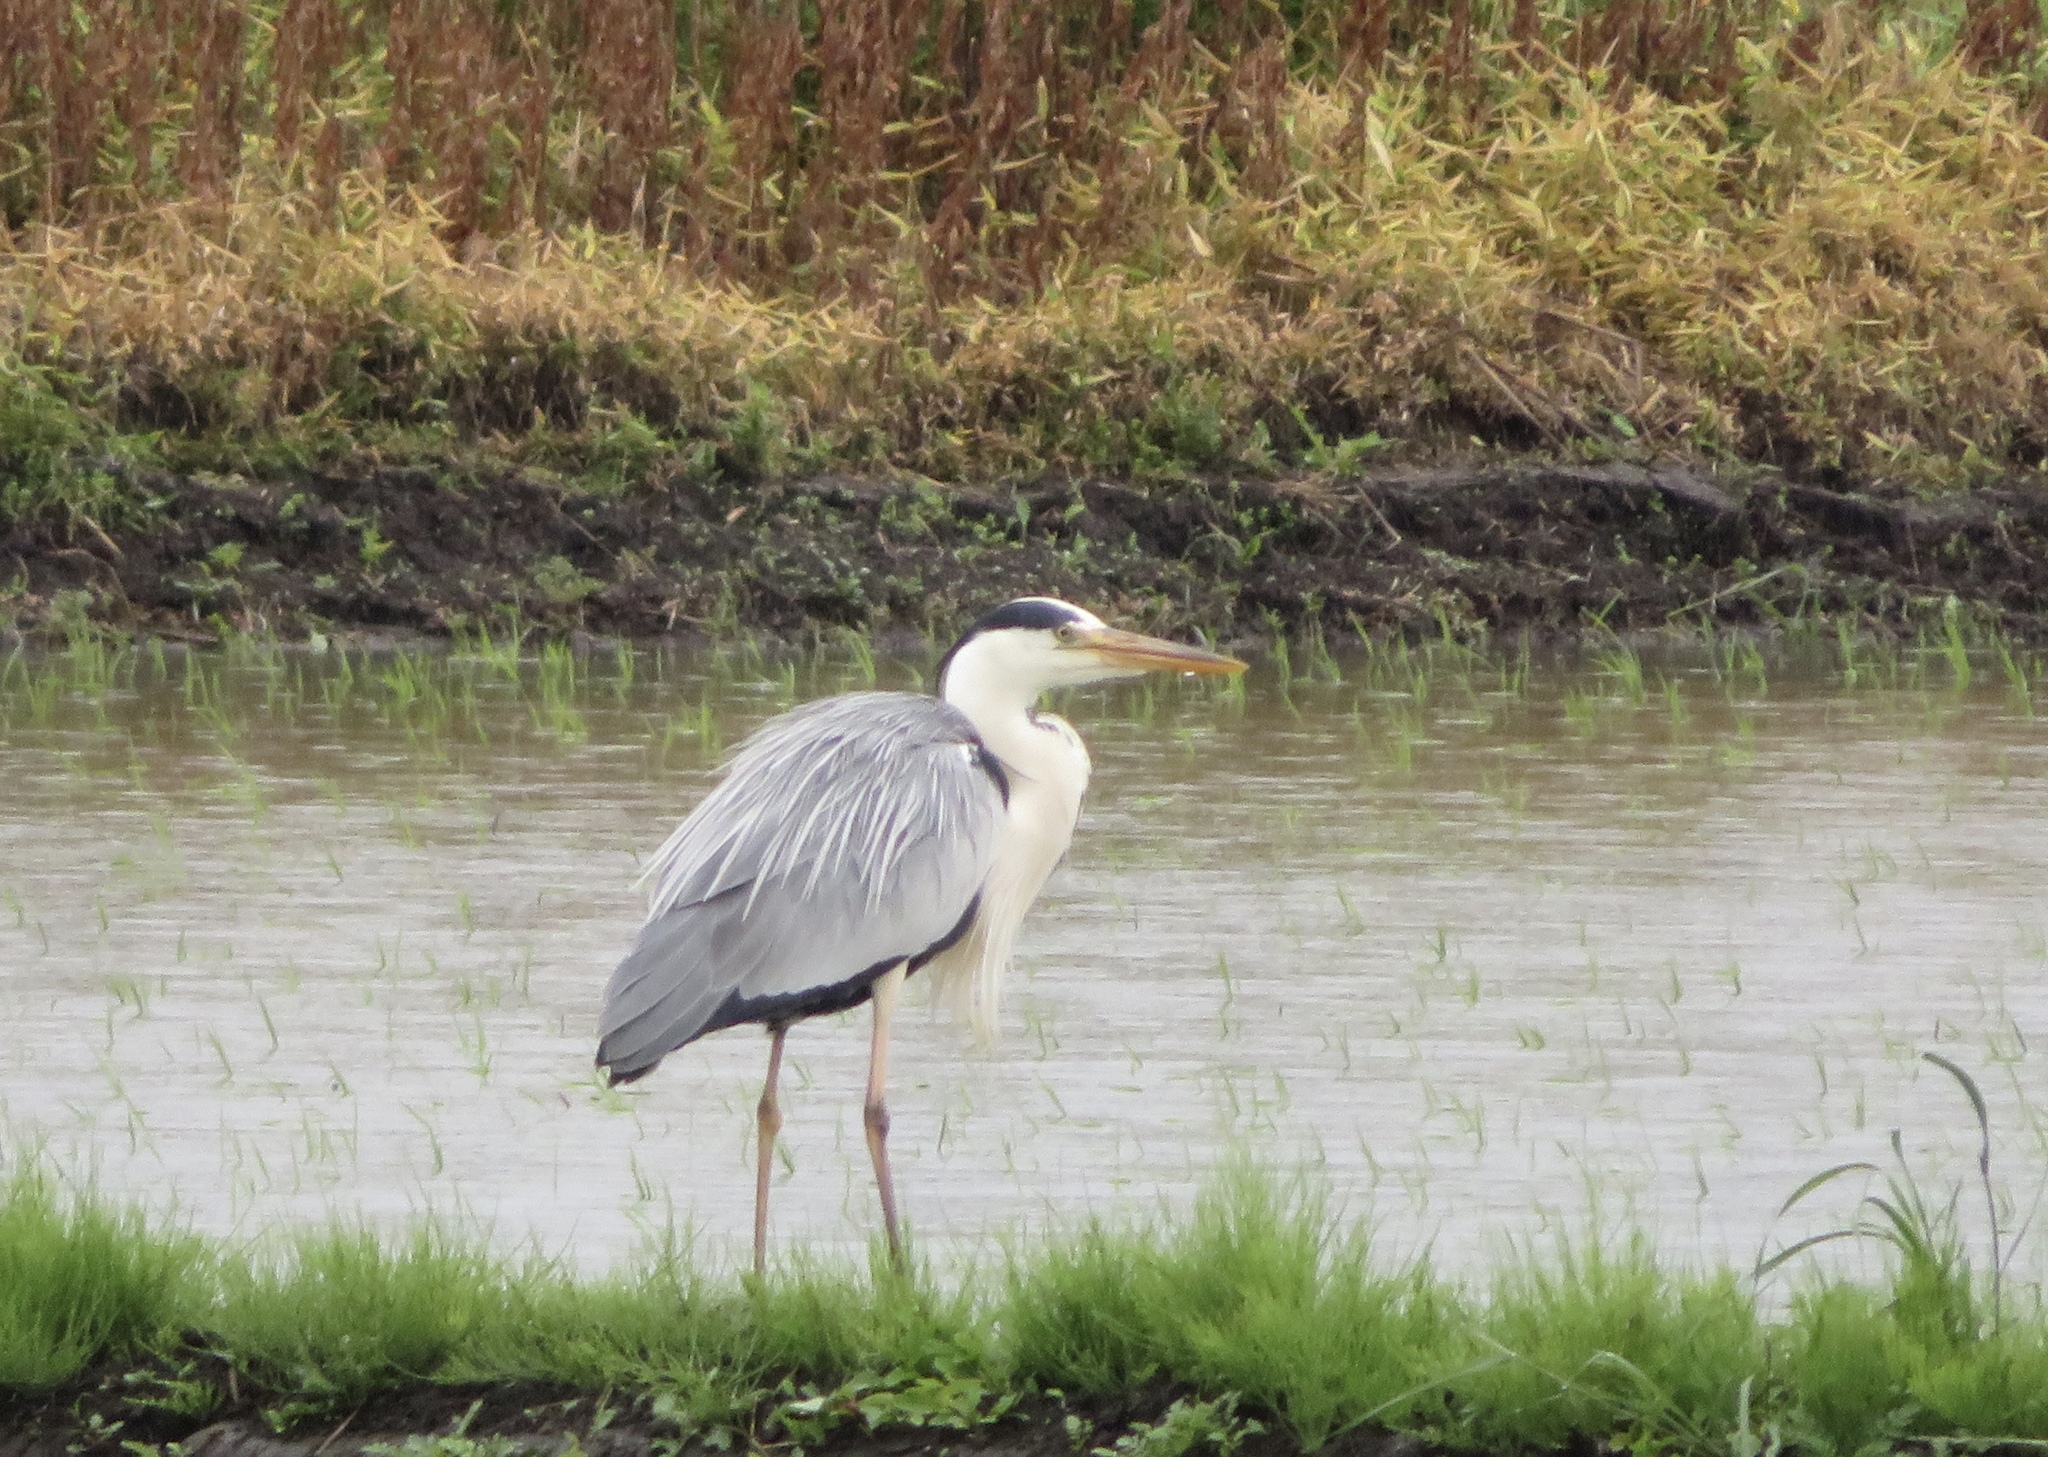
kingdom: Animalia
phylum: Chordata
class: Aves
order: Pelecaniformes
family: Ardeidae
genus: Ardea
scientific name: Ardea cinerea
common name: Grey heron
